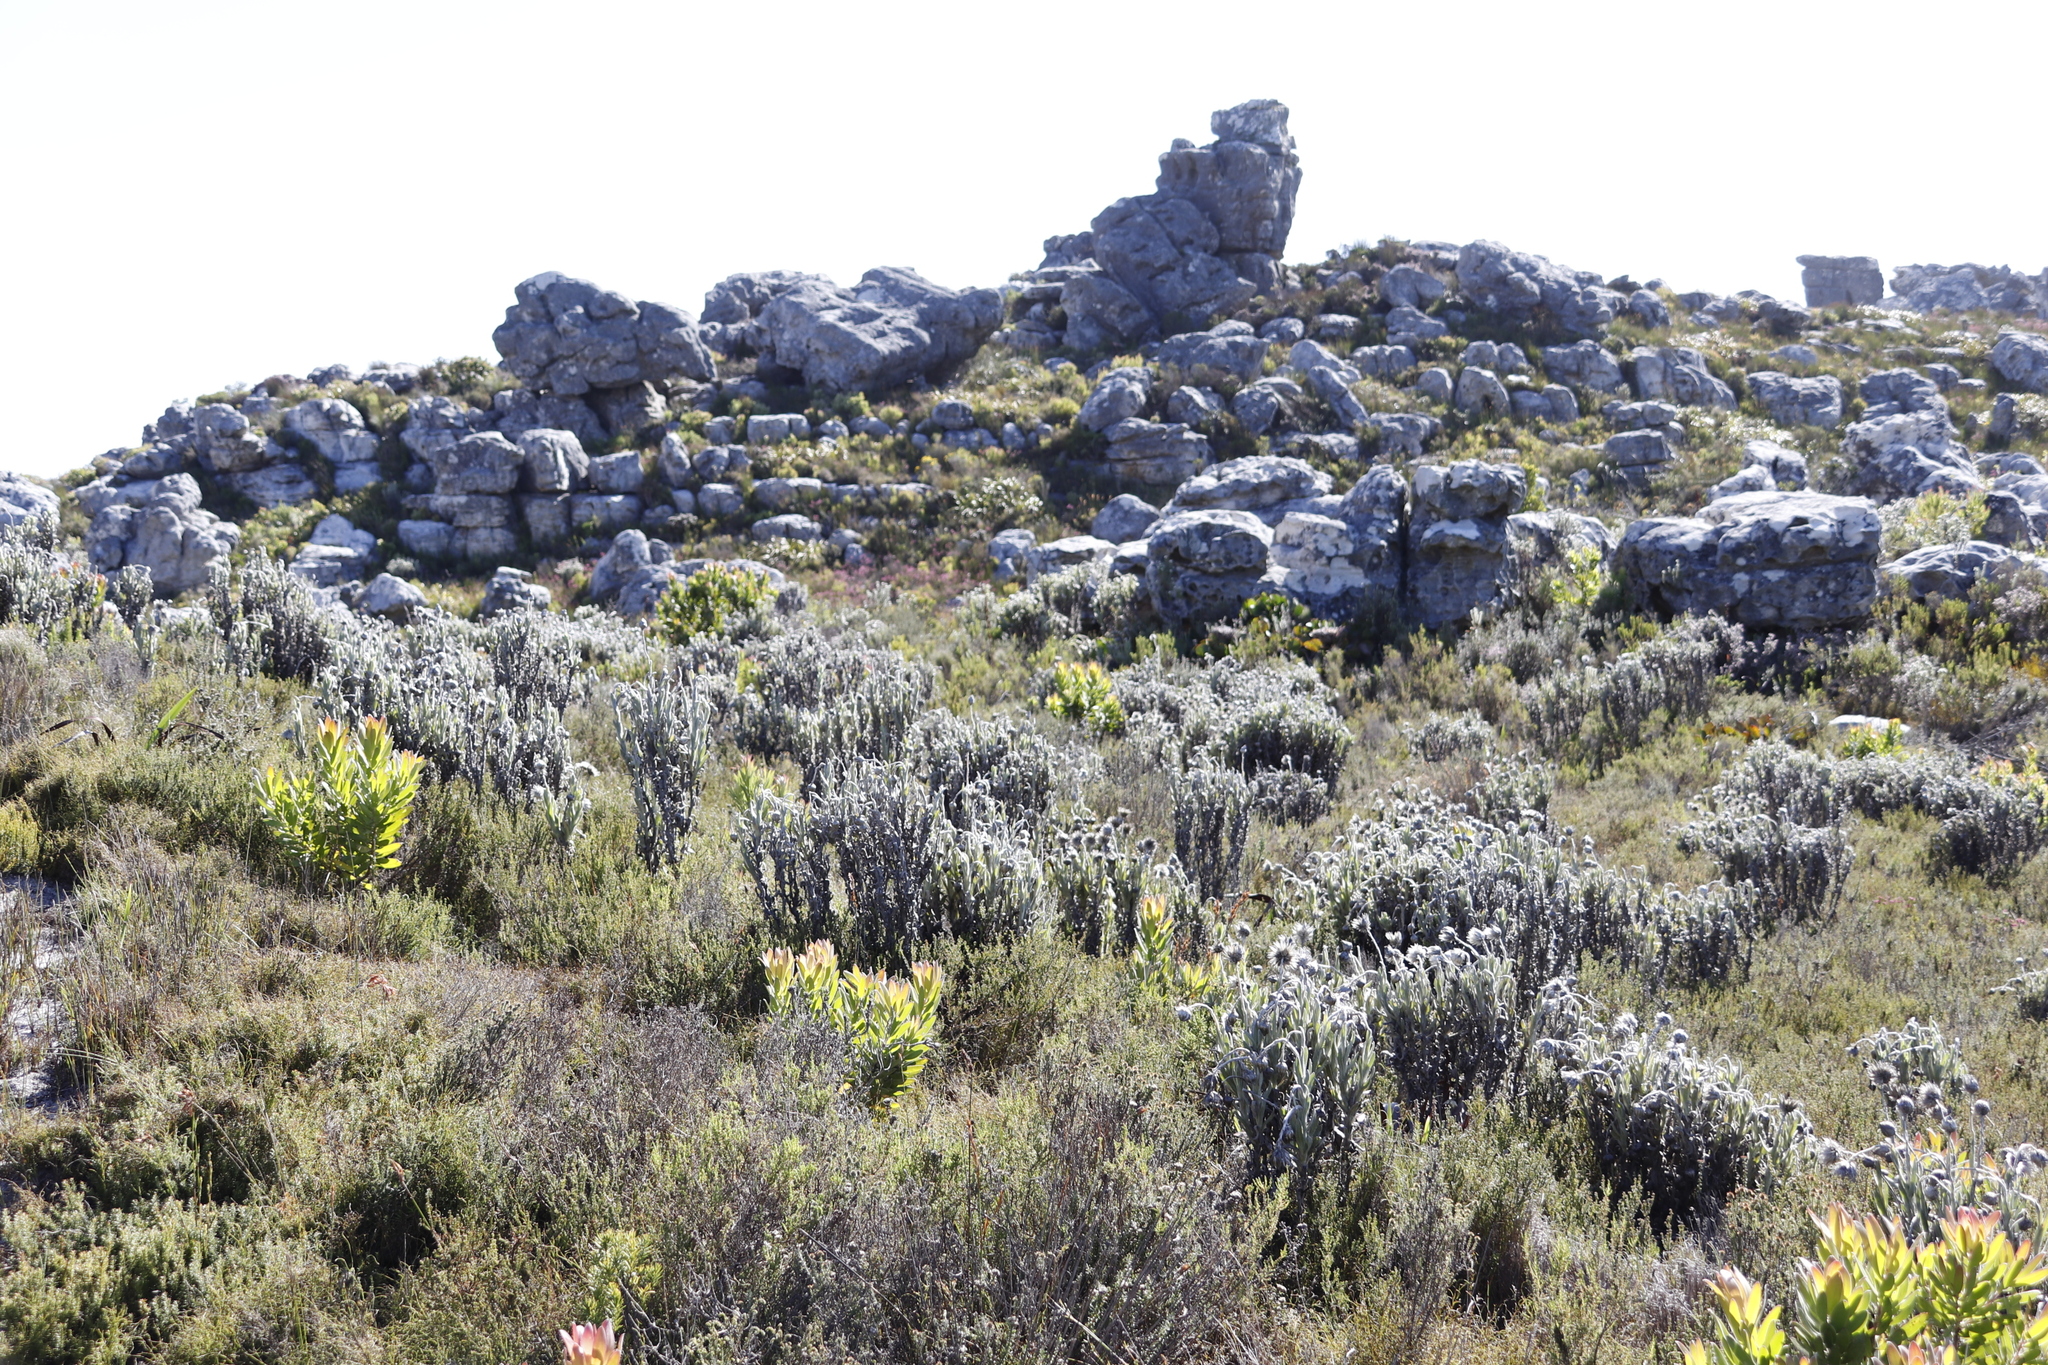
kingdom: Plantae
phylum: Tracheophyta
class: Magnoliopsida
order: Asterales
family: Asteraceae
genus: Syncarpha
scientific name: Syncarpha vestita
